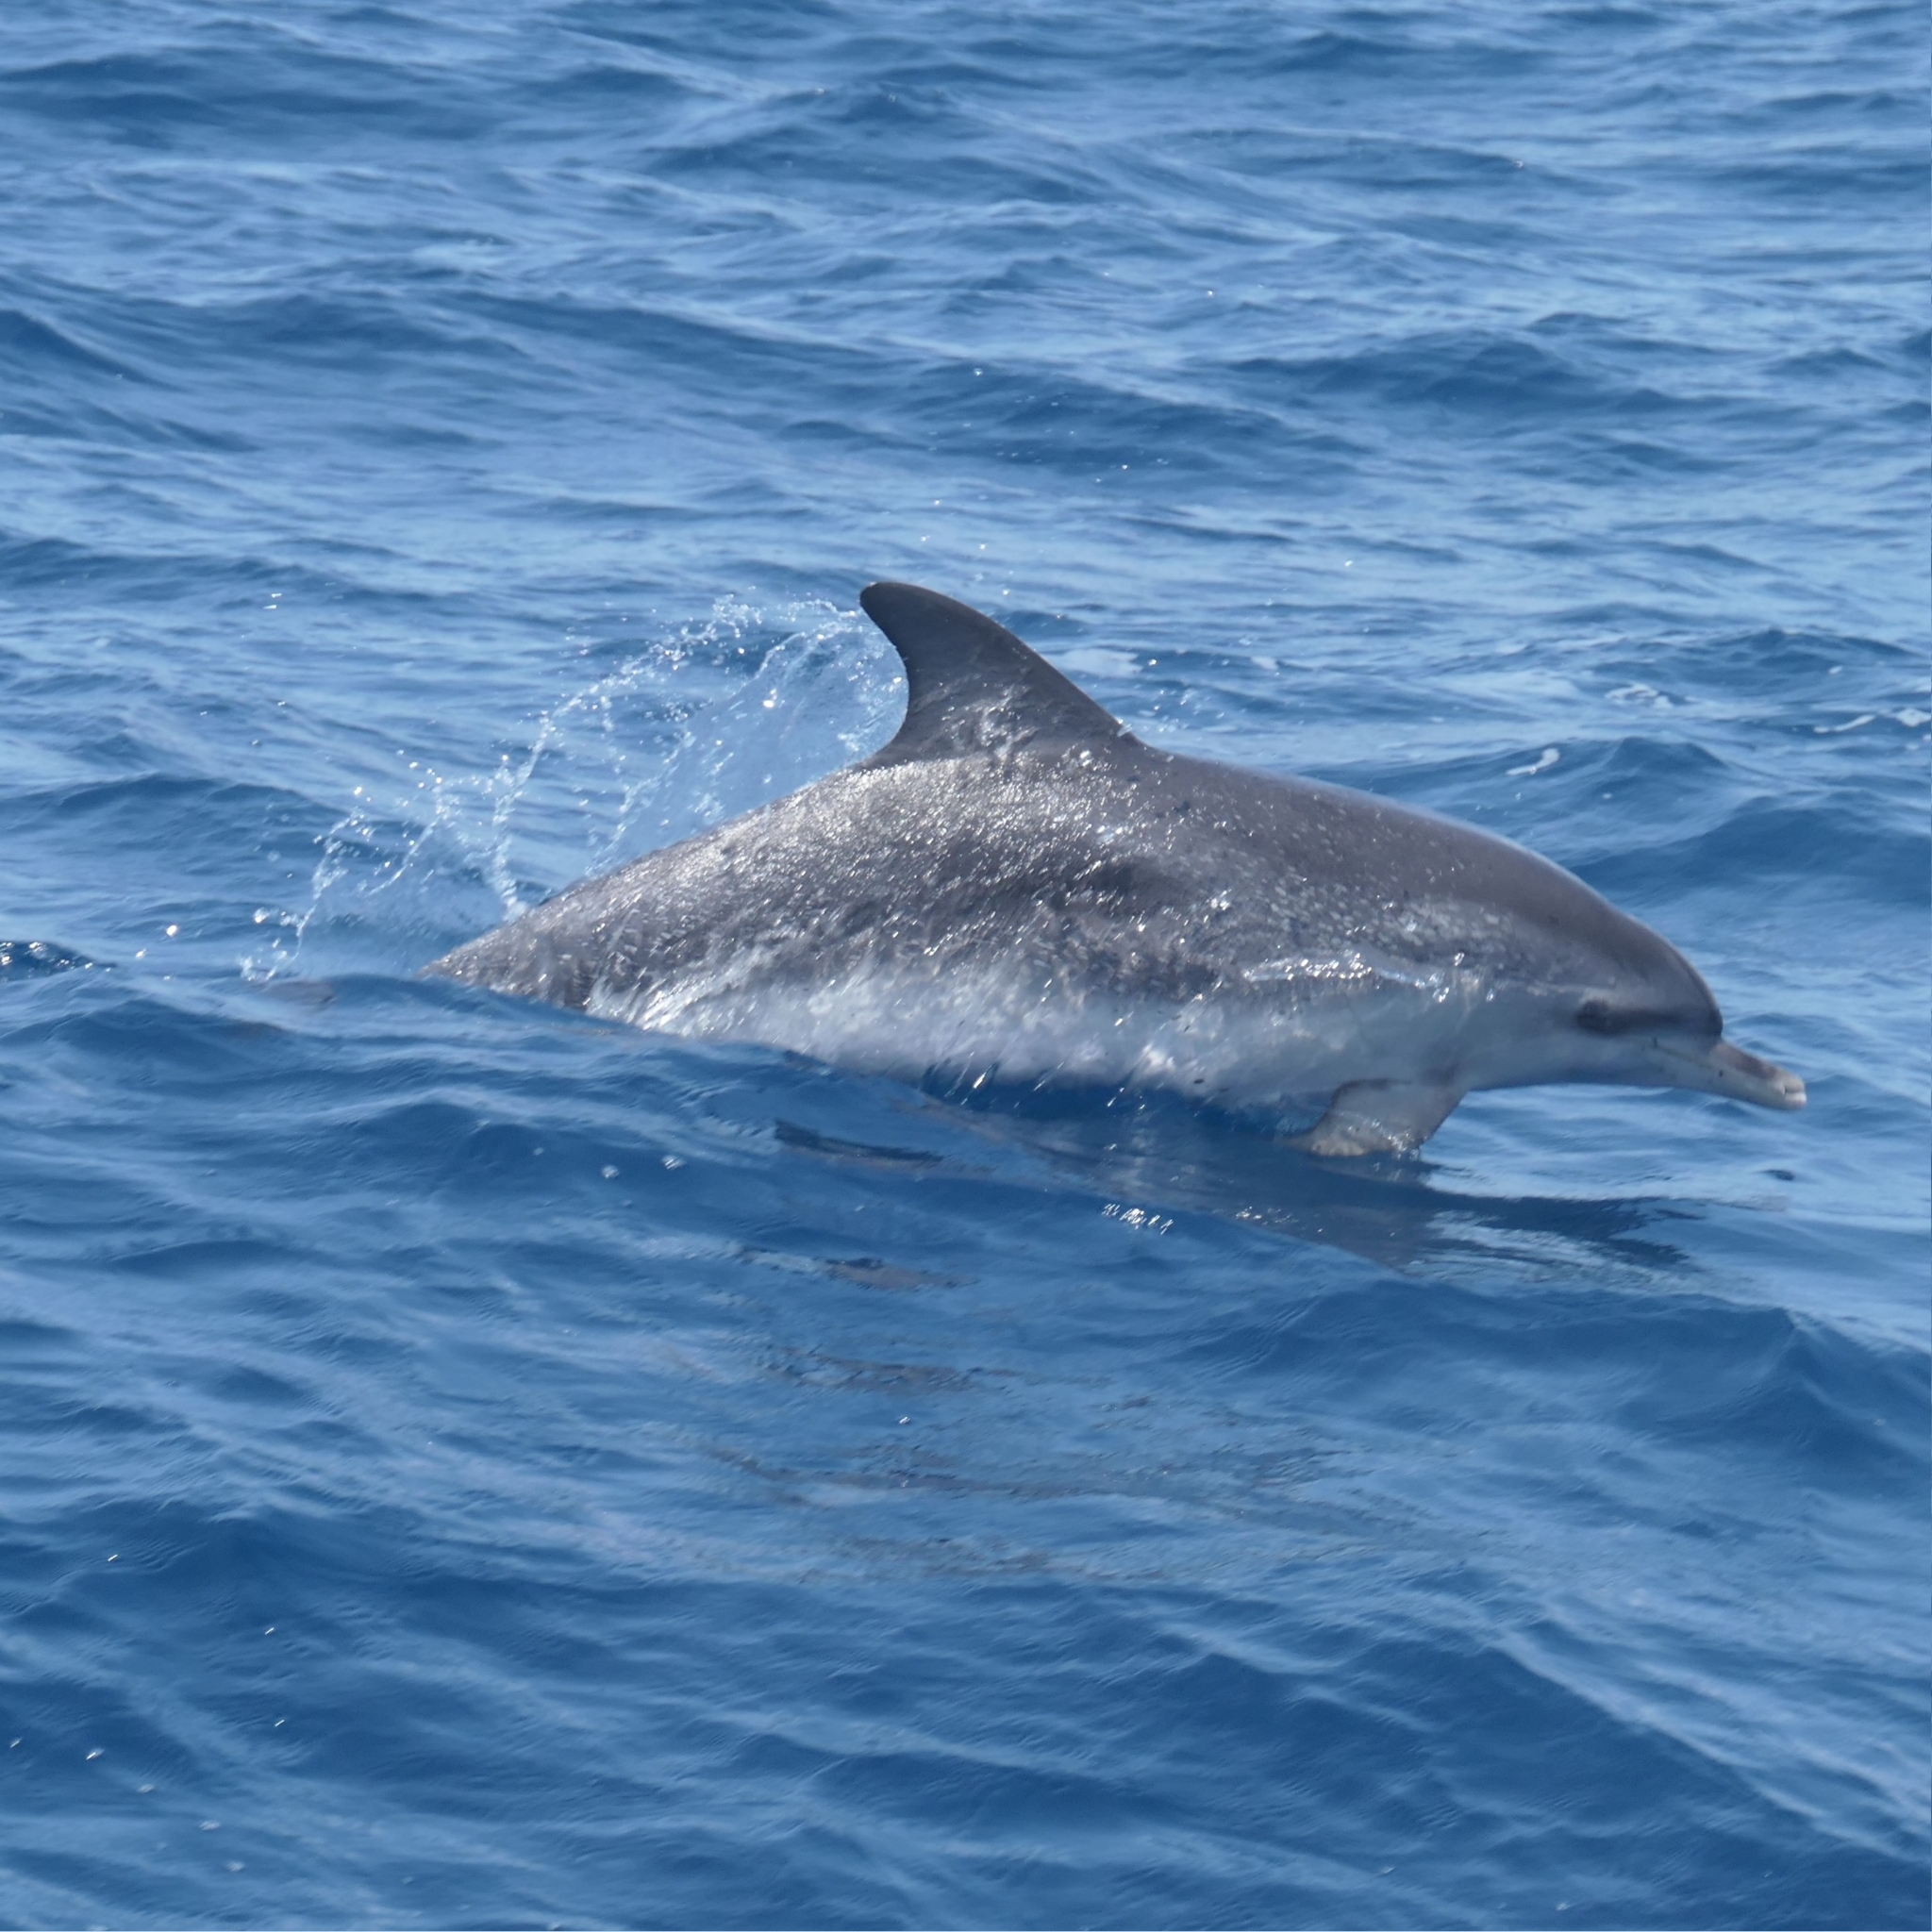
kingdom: Animalia
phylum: Chordata
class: Mammalia
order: Cetacea
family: Delphinidae
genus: Stenella
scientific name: Stenella frontalis
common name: Atlantic spotted dolphin
